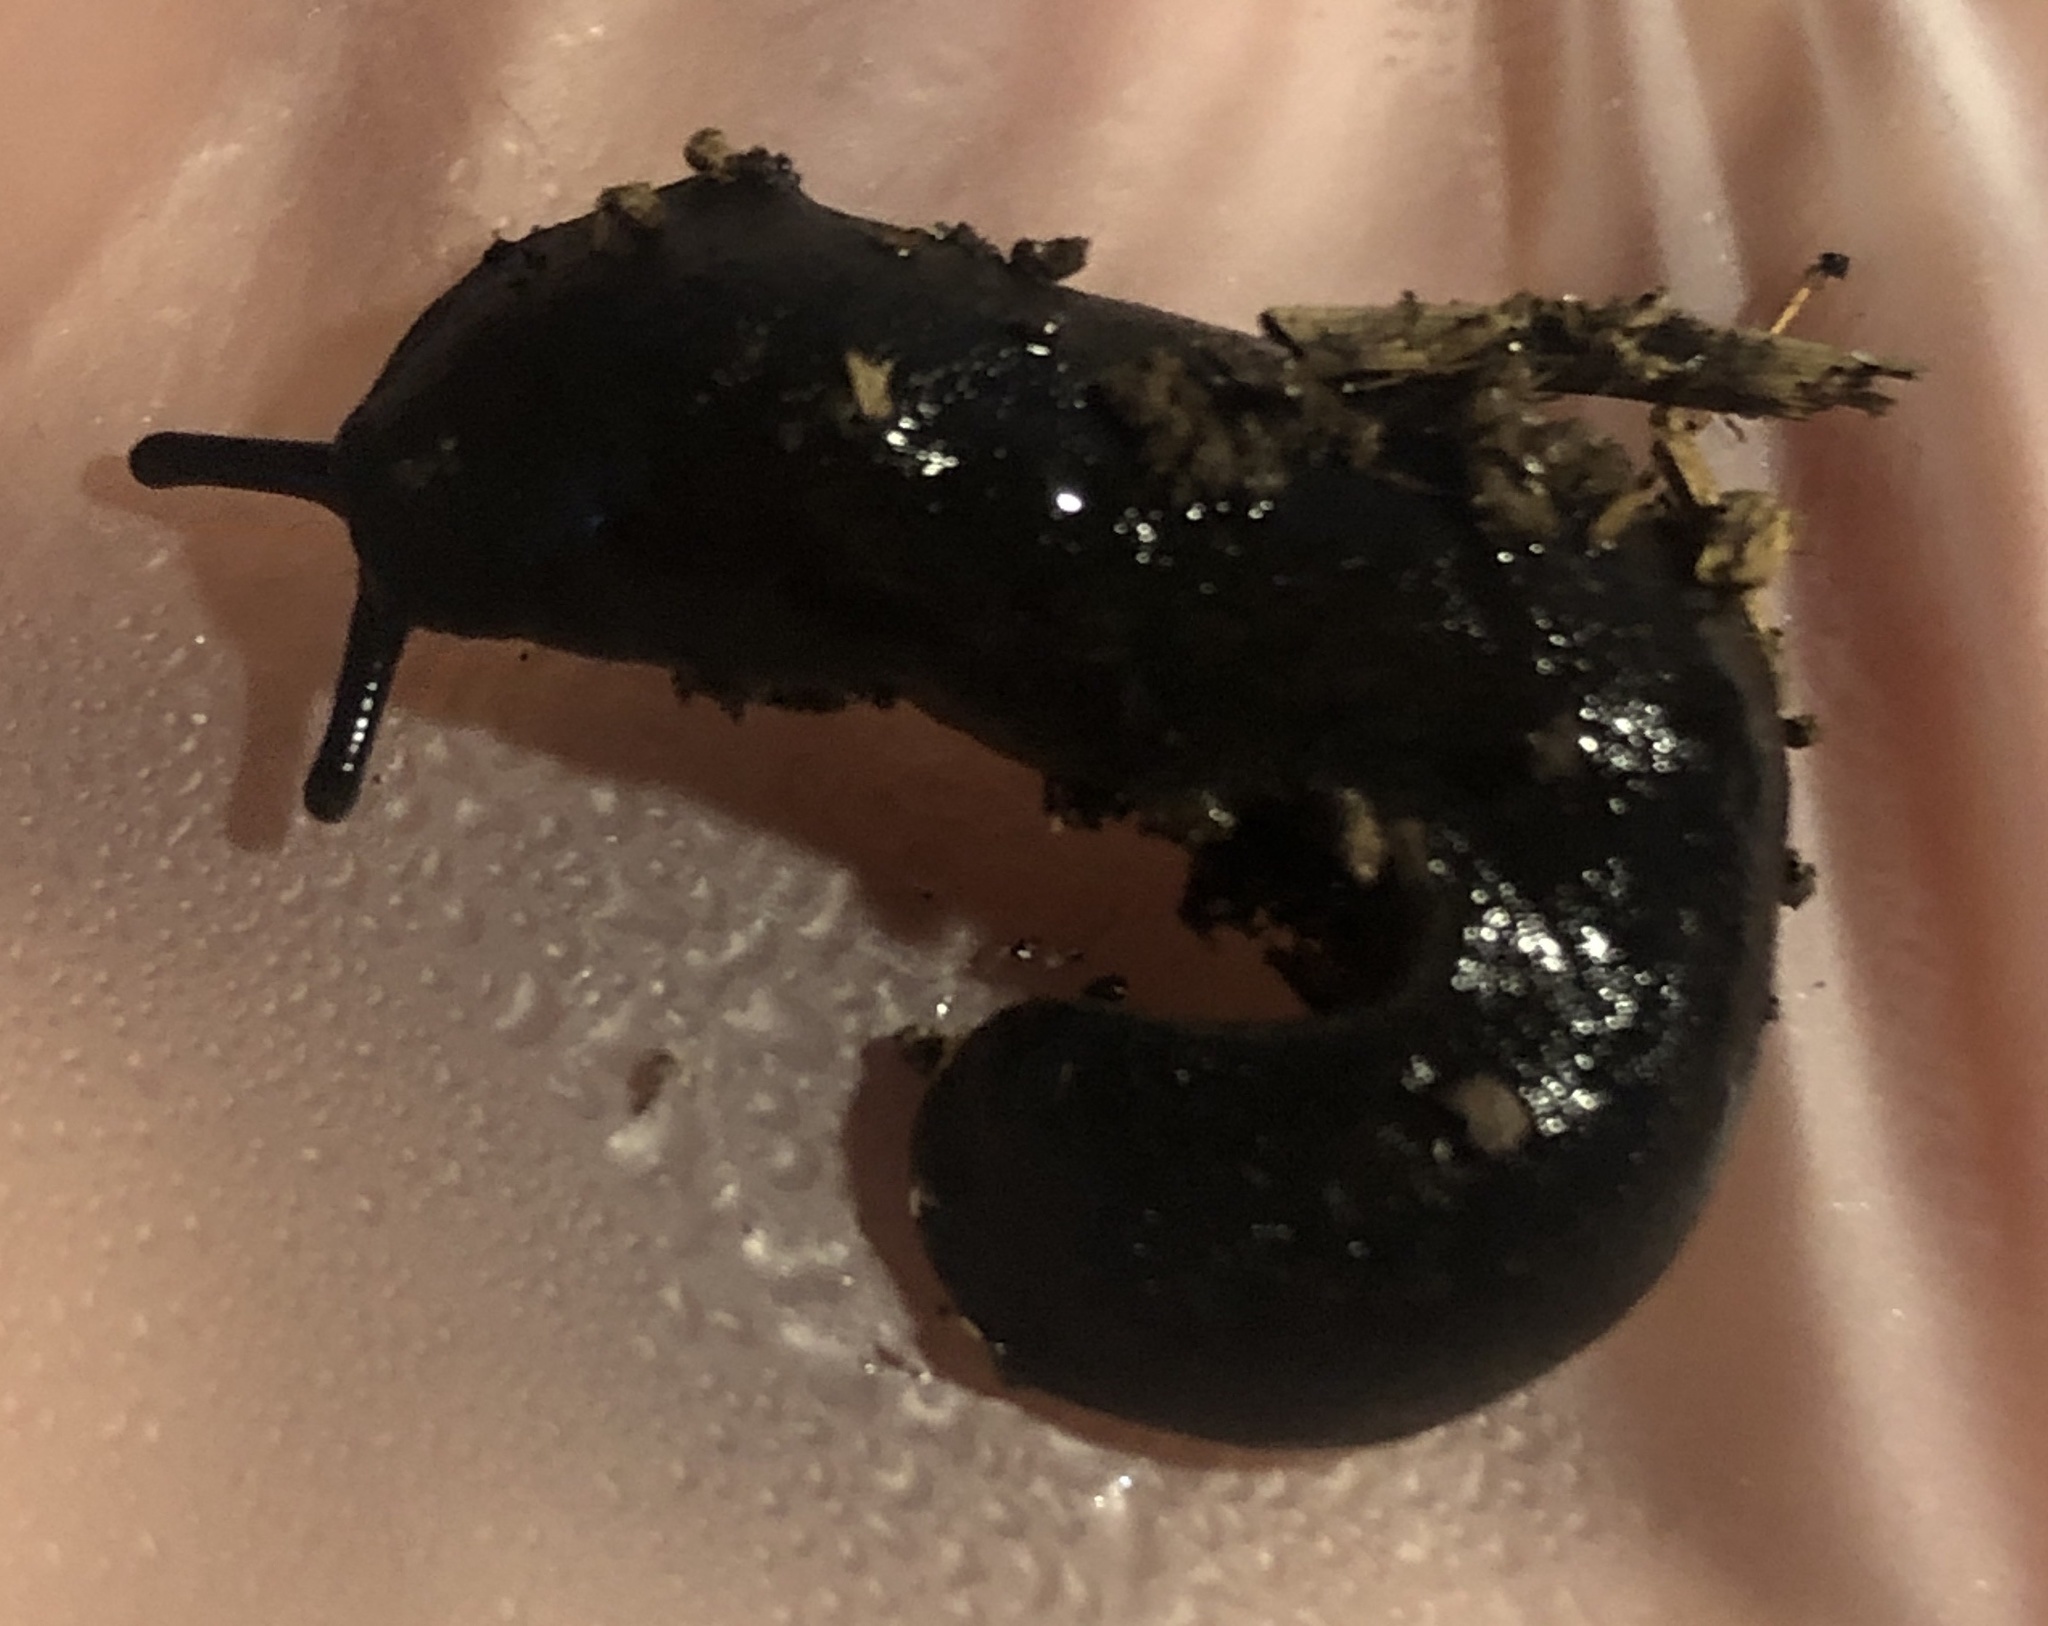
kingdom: Animalia
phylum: Mollusca
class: Gastropoda
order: Systellommatophora
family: Veronicellidae
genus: Belocaulus
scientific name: Belocaulus angustipes
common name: Black velvet leatherleaf slug
